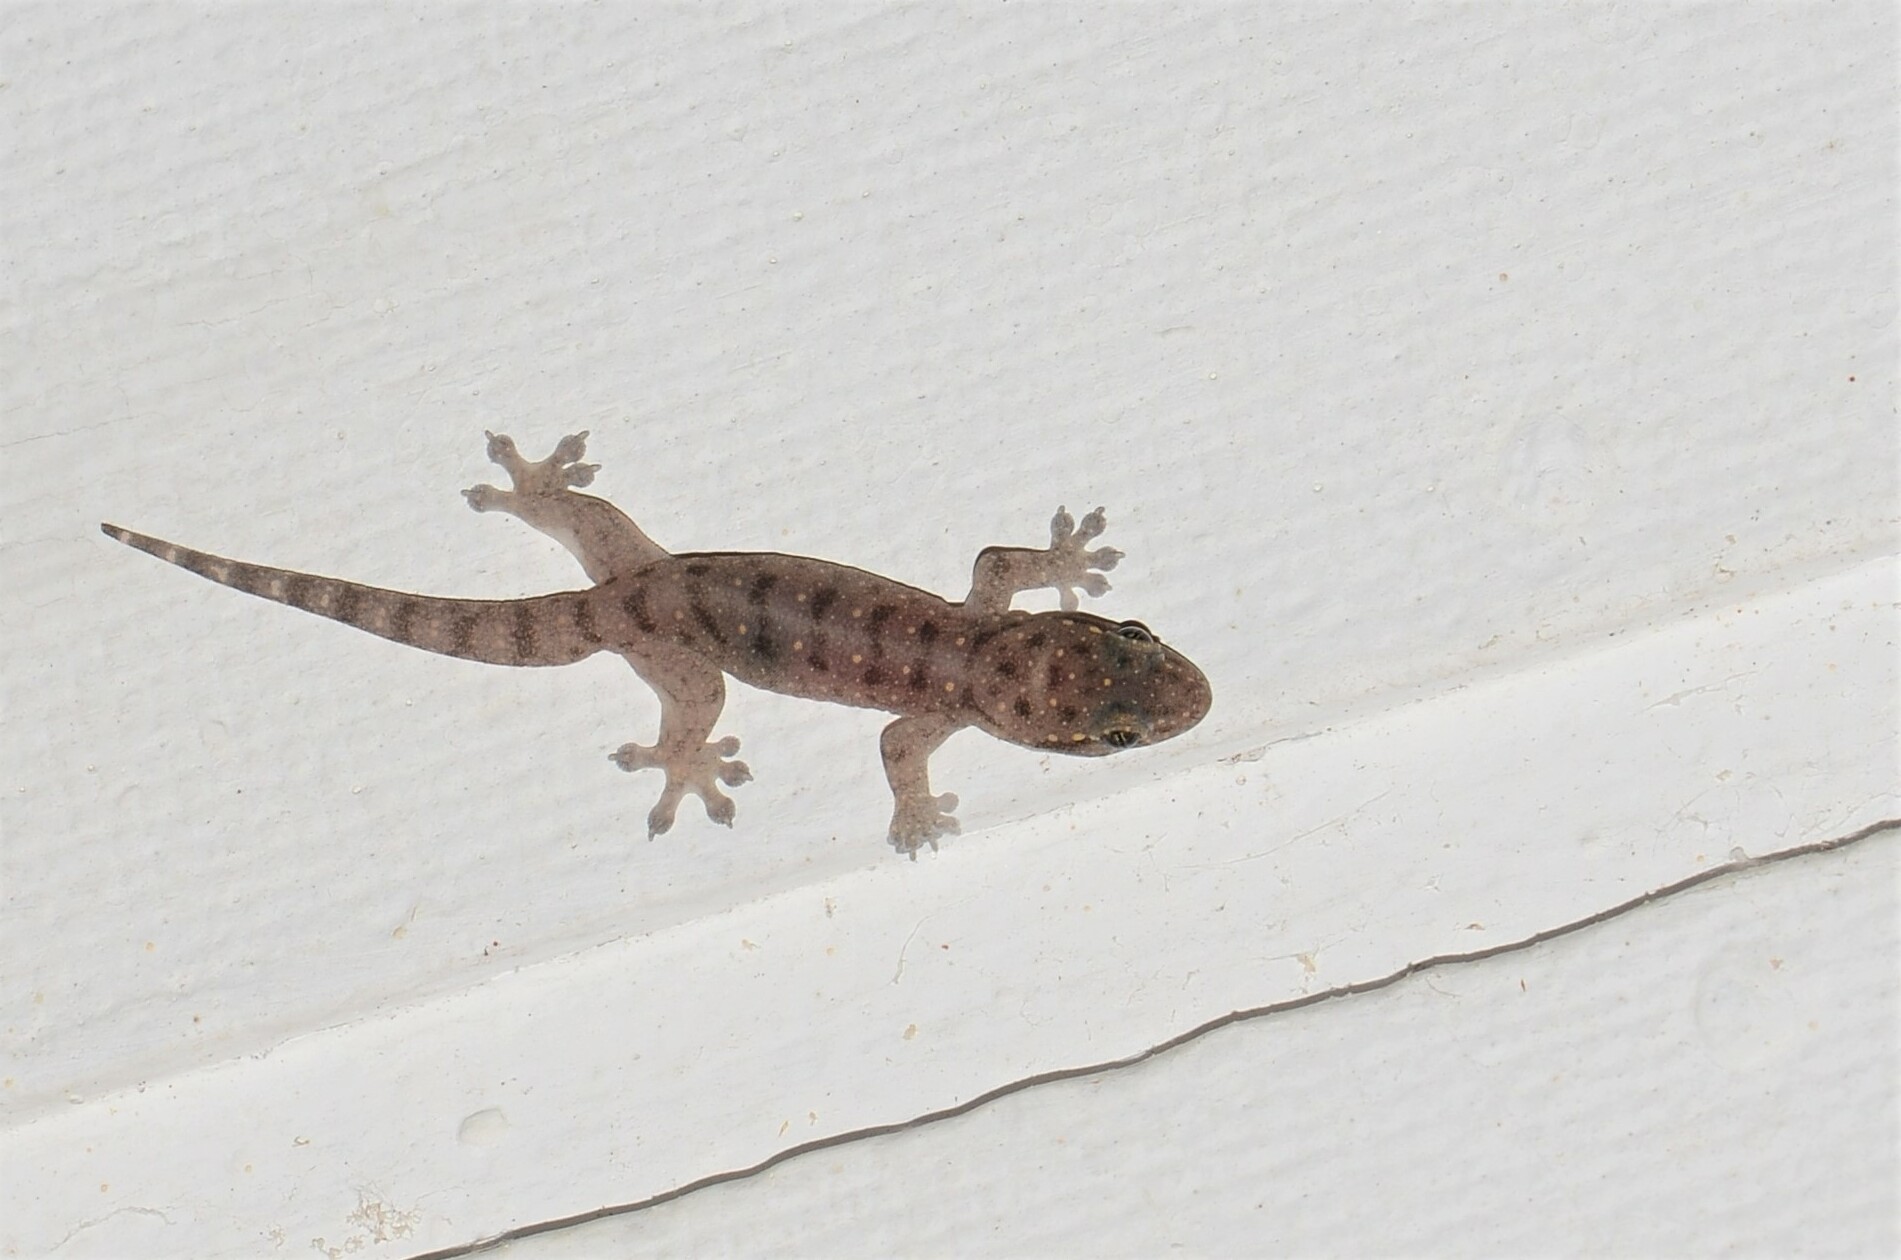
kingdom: Animalia
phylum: Chordata
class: Squamata
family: Gekkonidae
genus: Gehyra
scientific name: Gehyra mutilata
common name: Stump-toed gecko
